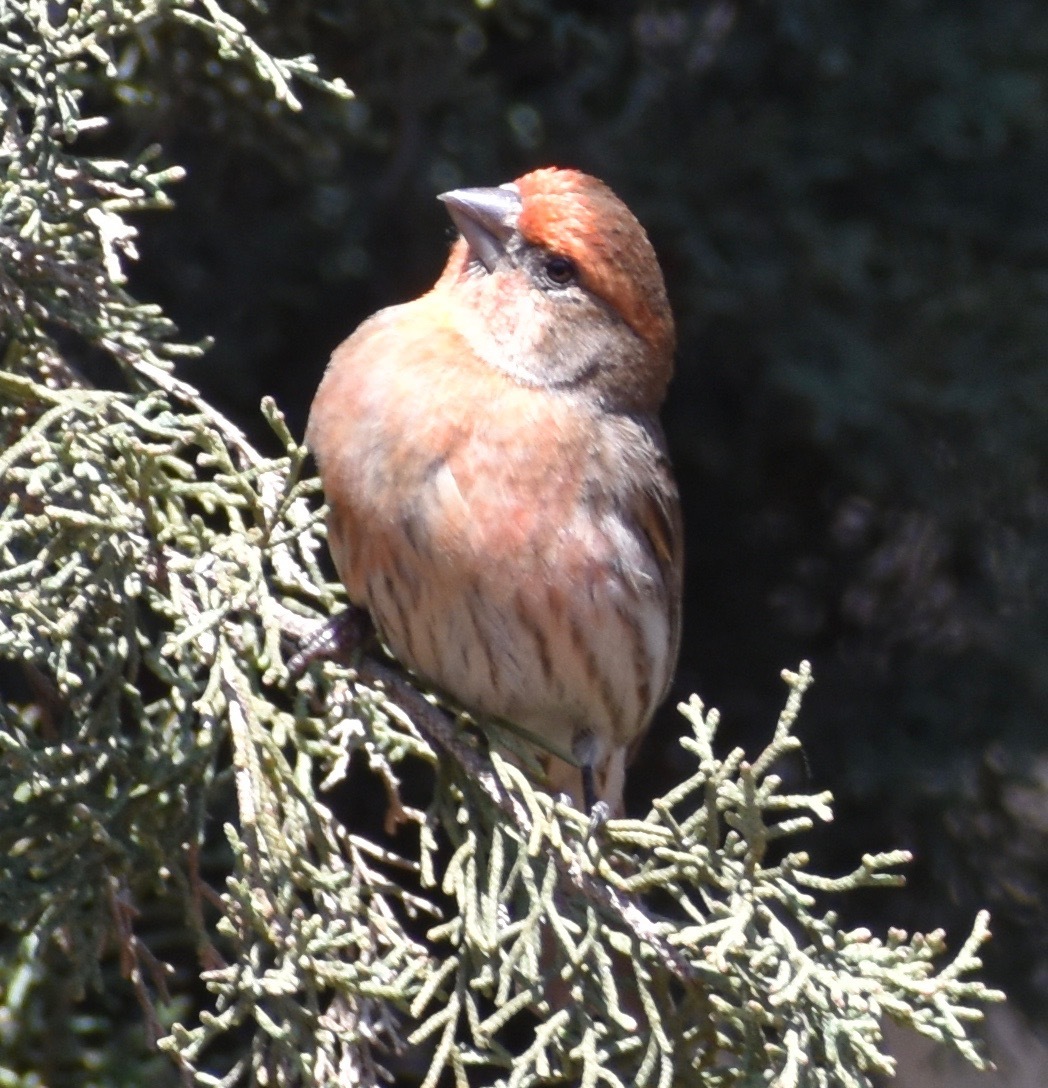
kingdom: Animalia
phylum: Chordata
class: Aves
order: Passeriformes
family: Fringillidae
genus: Haemorhous
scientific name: Haemorhous mexicanus
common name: House finch
